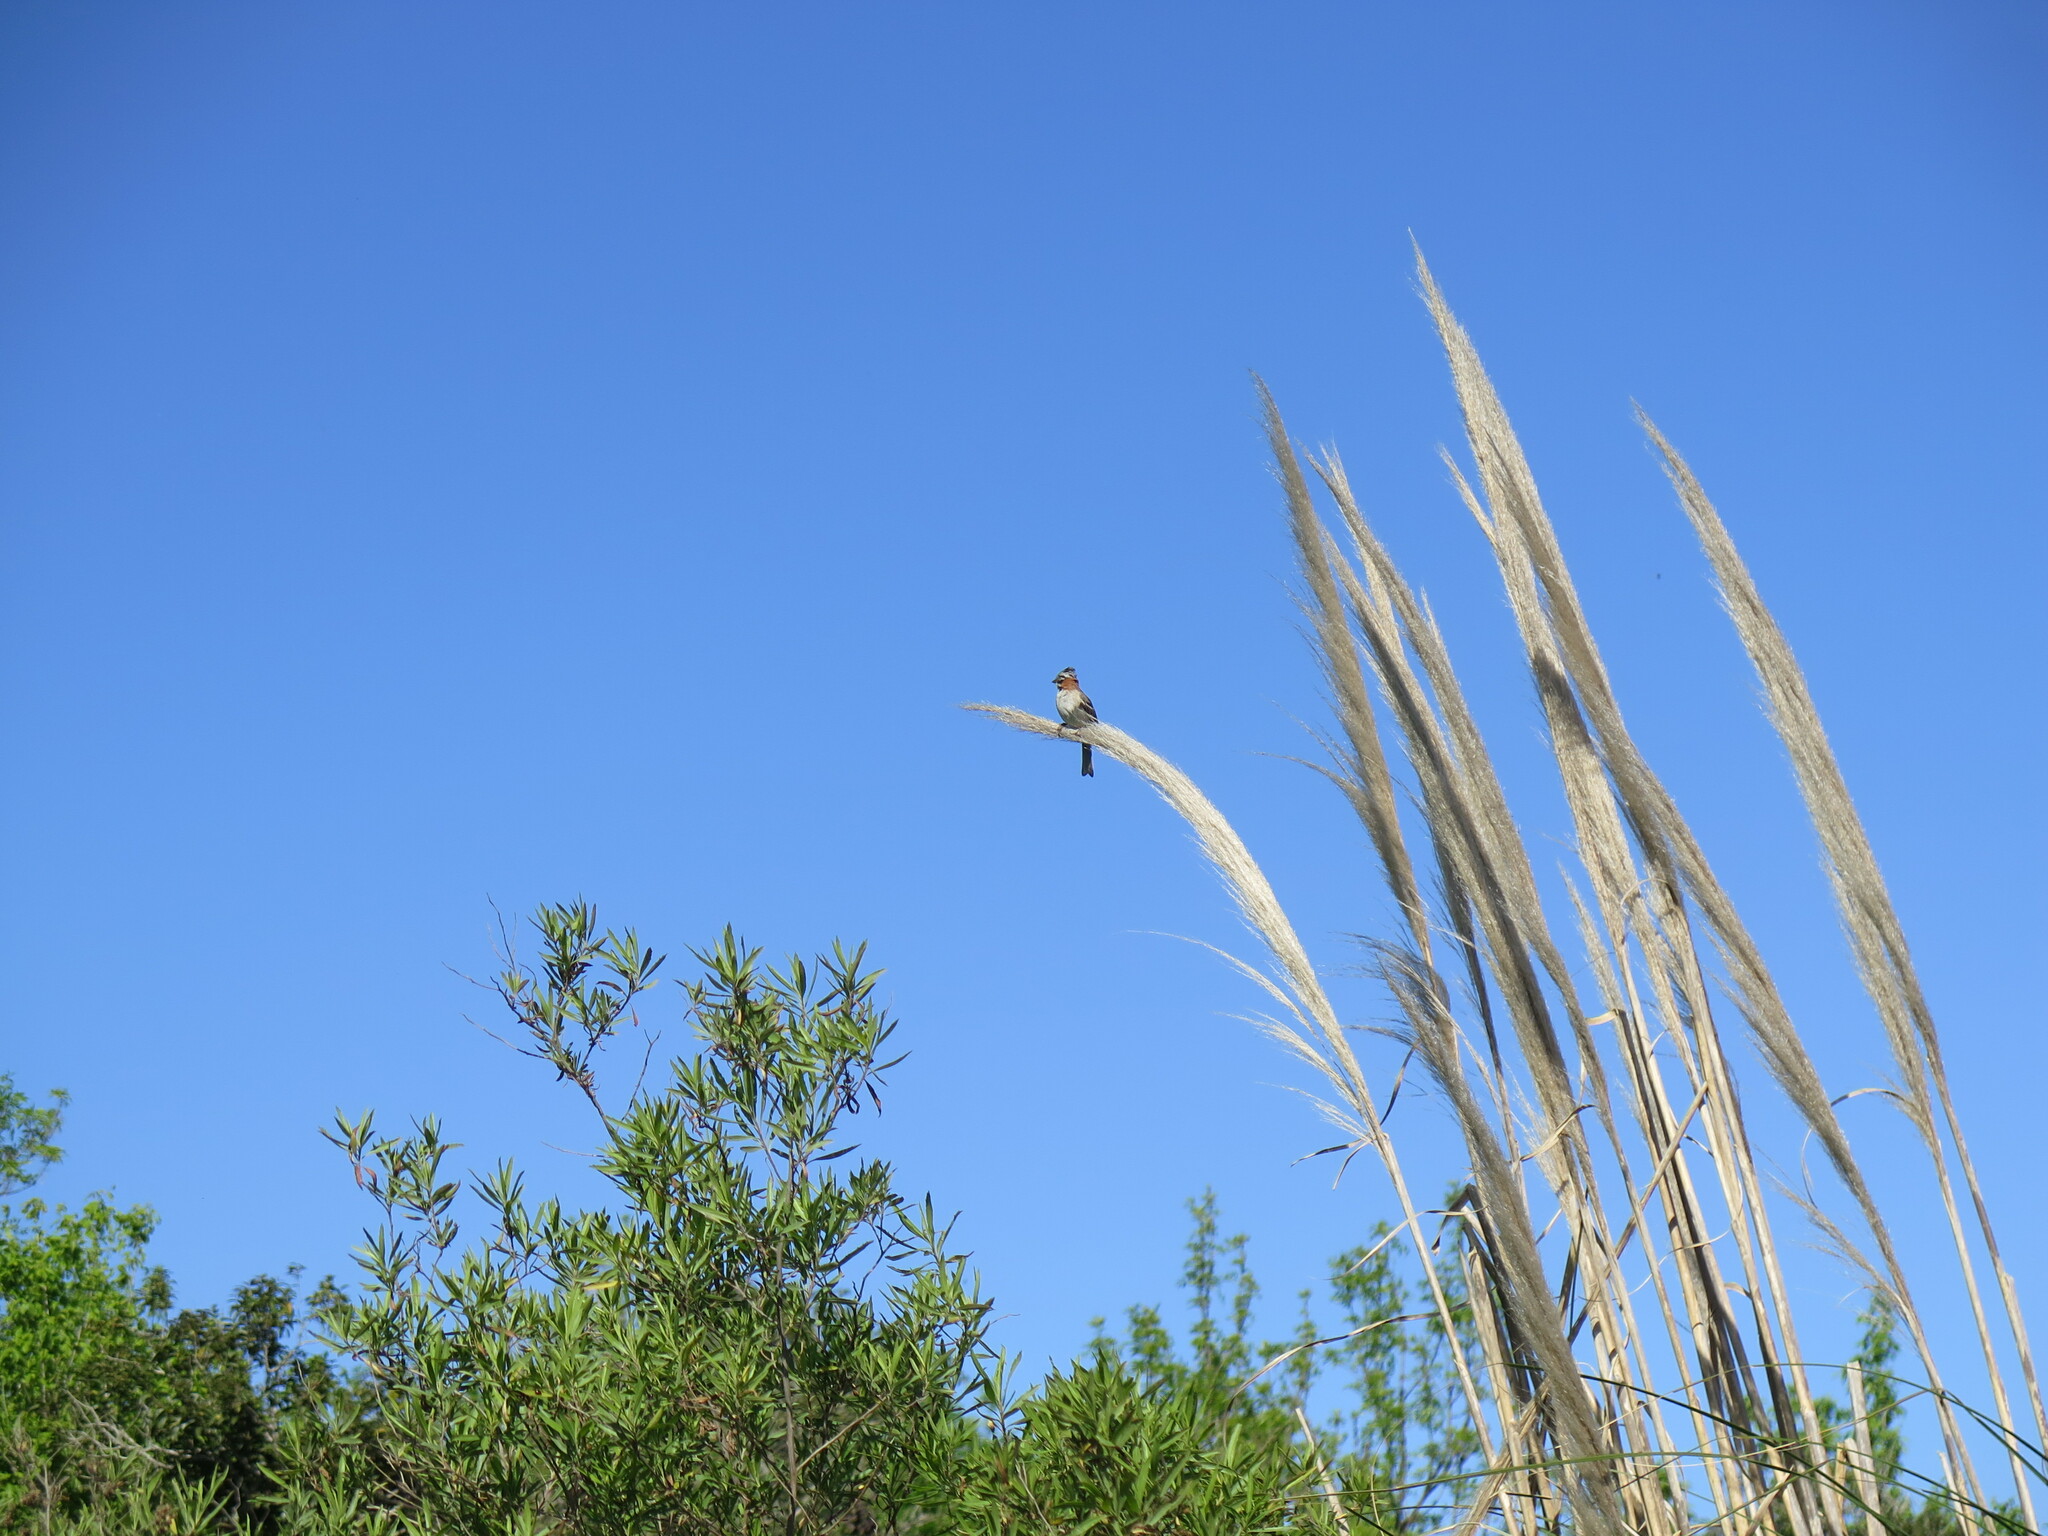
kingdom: Animalia
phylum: Chordata
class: Aves
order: Passeriformes
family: Passerellidae
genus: Zonotrichia
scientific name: Zonotrichia capensis
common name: Rufous-collared sparrow
